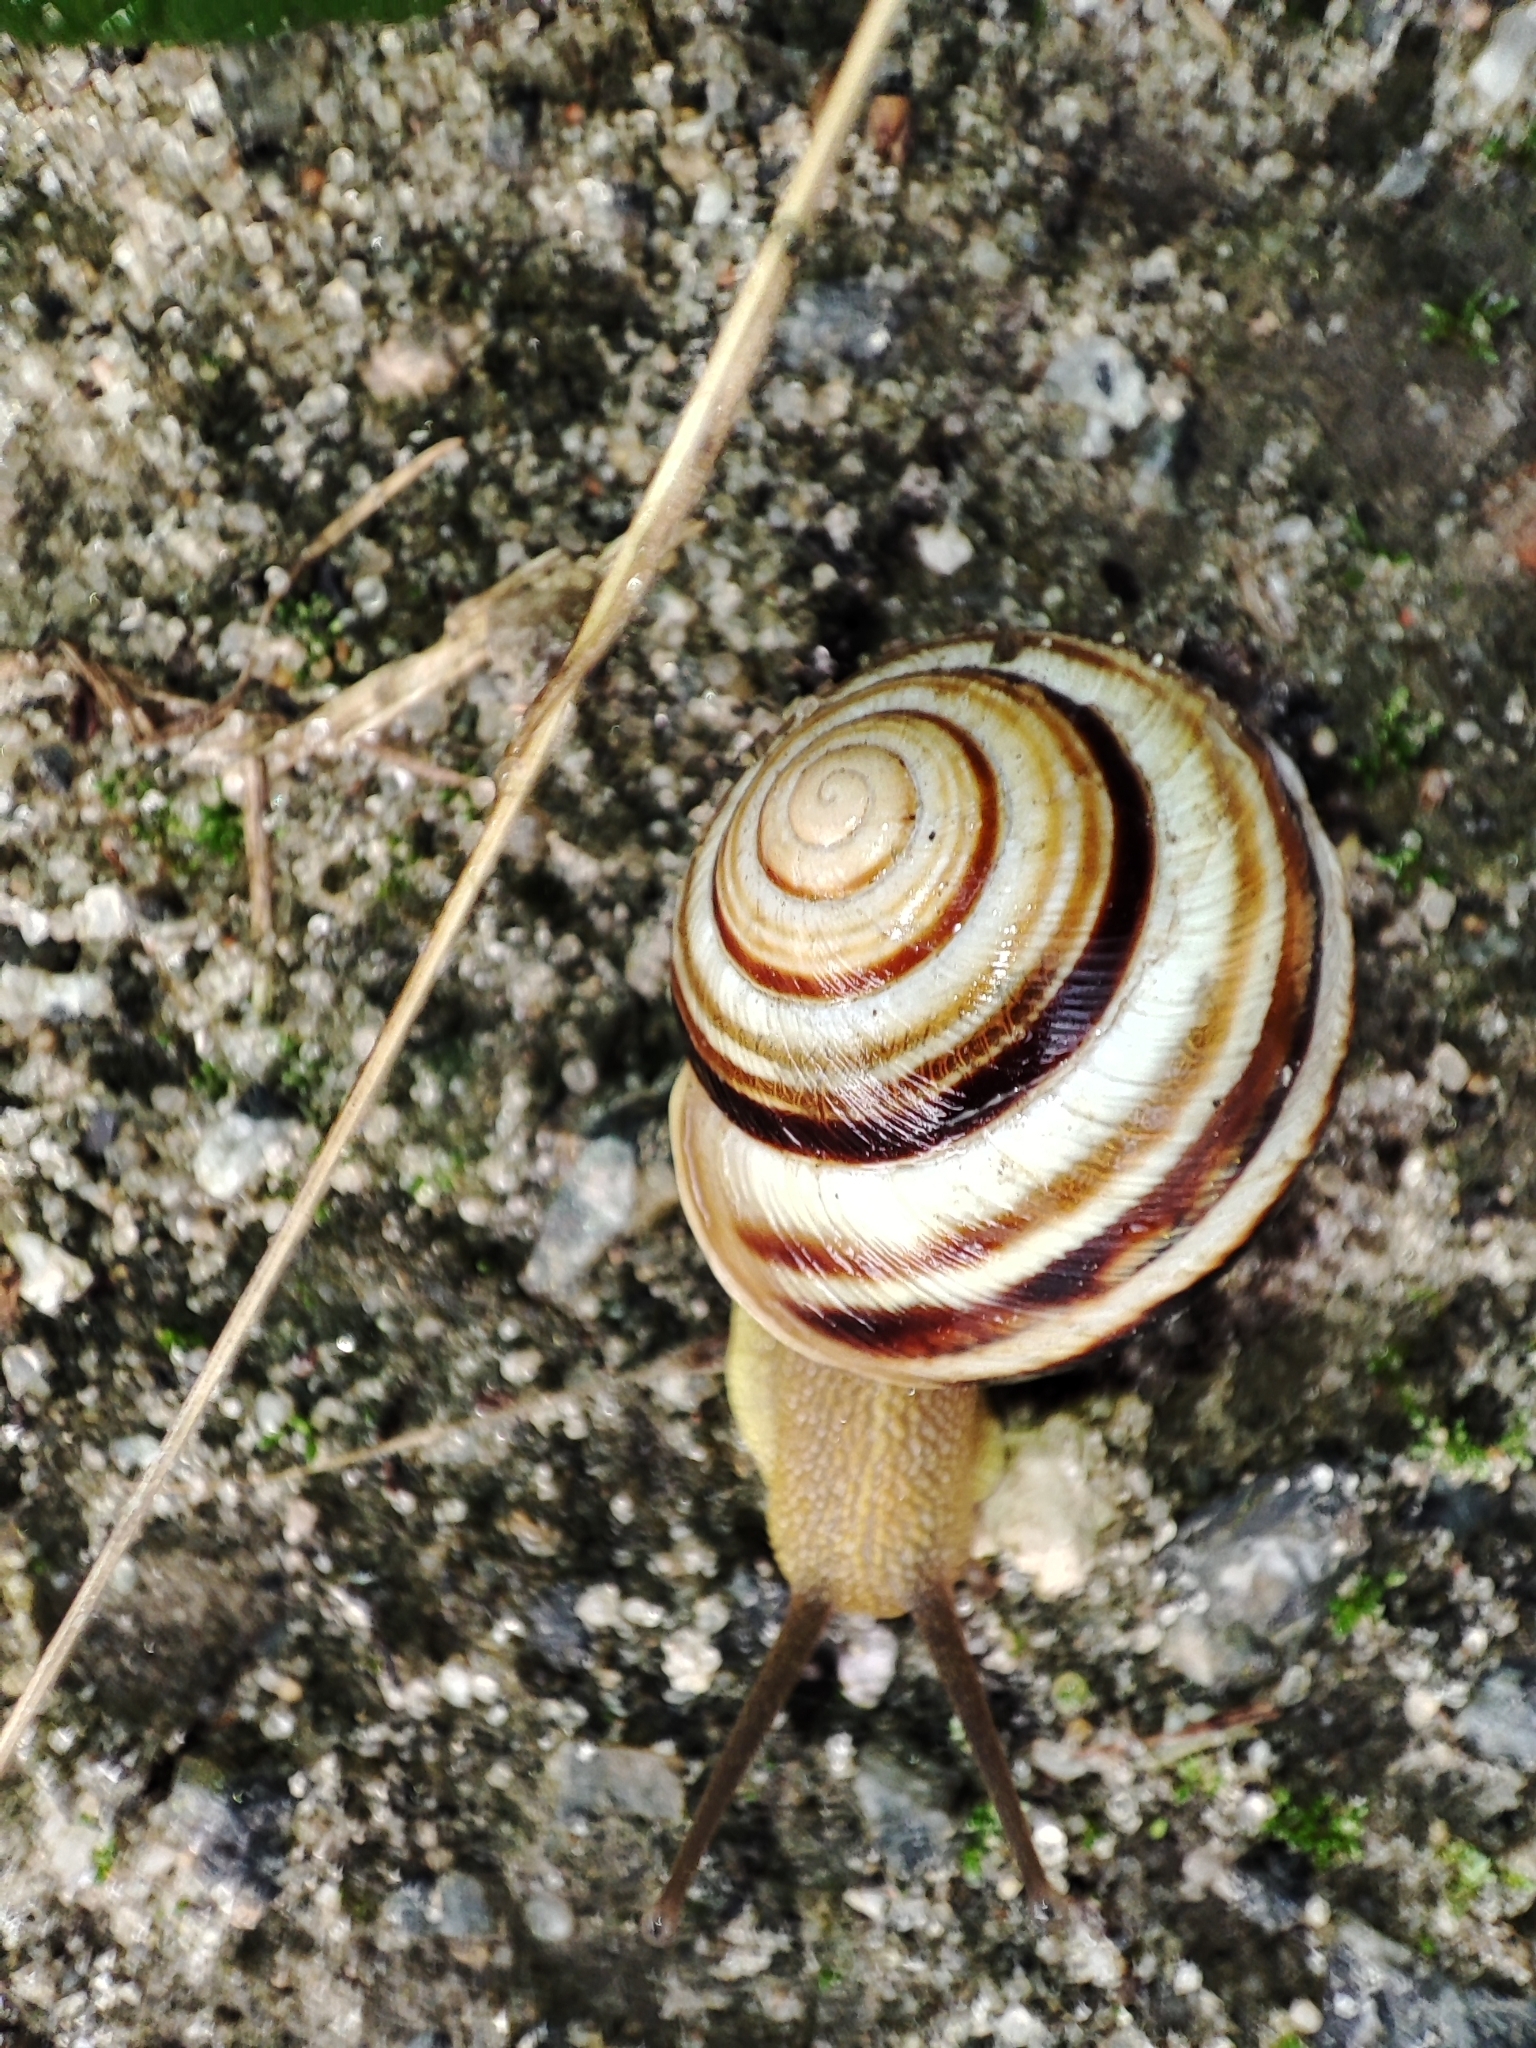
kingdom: Animalia
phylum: Mollusca
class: Gastropoda
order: Stylommatophora
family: Helicidae
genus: Caucasotachea
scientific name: Caucasotachea vindobonensis
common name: European helicid land snail
